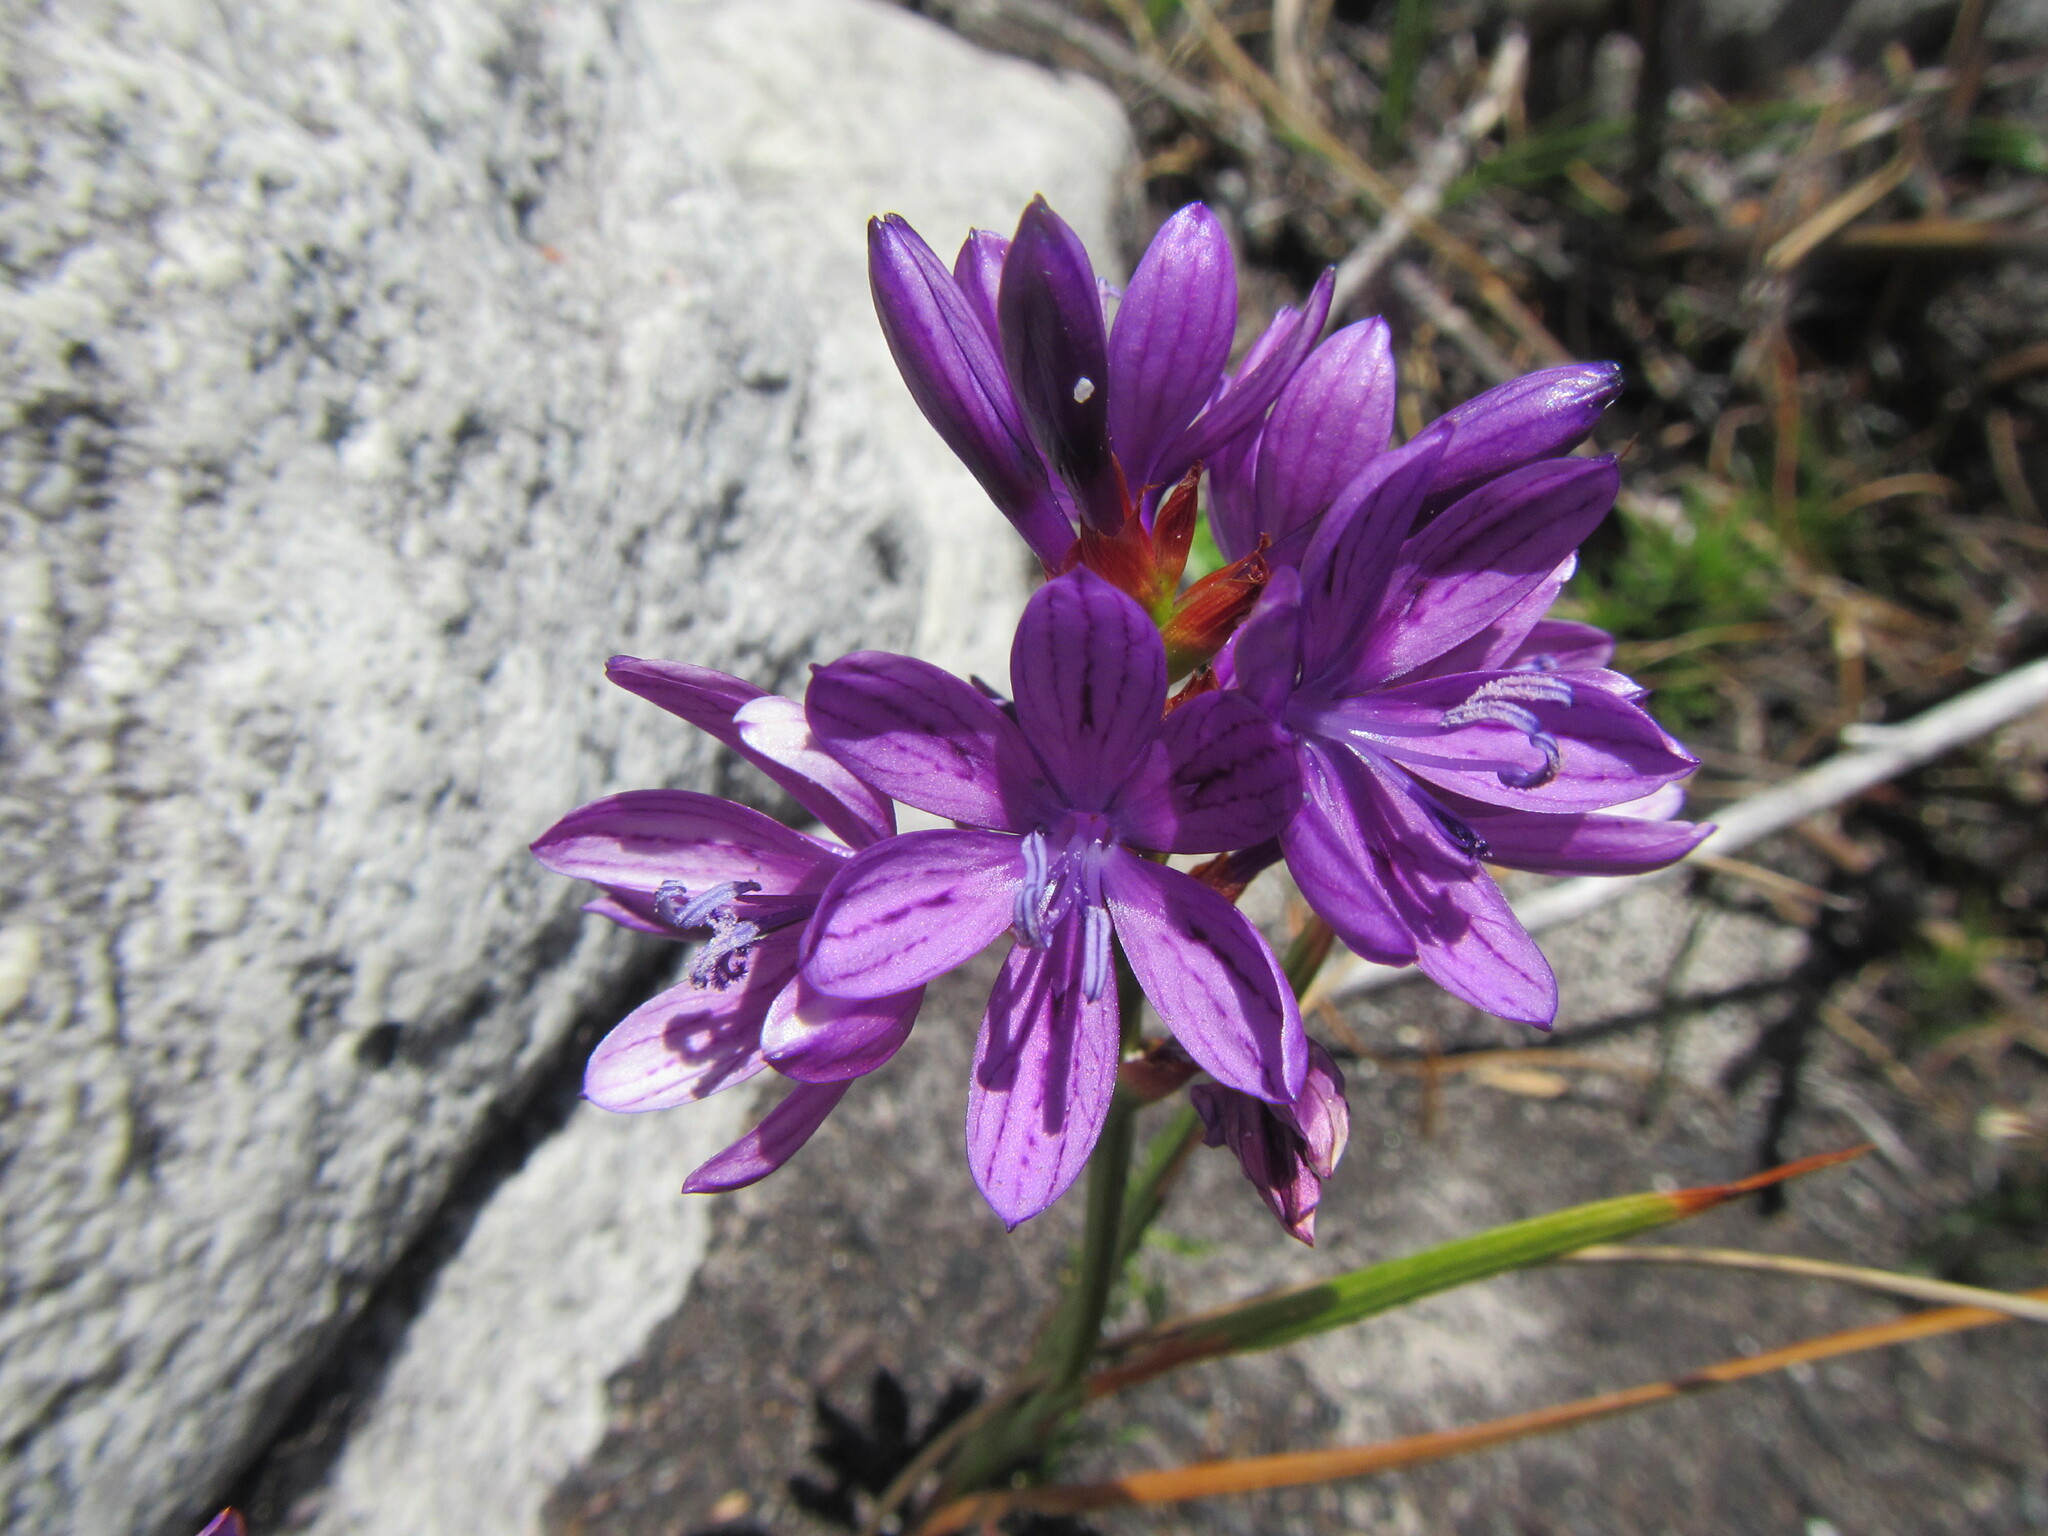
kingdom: Plantae
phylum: Tracheophyta
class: Liliopsida
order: Asparagales
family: Iridaceae
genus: Thereianthus
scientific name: Thereianthus bracteolatus
